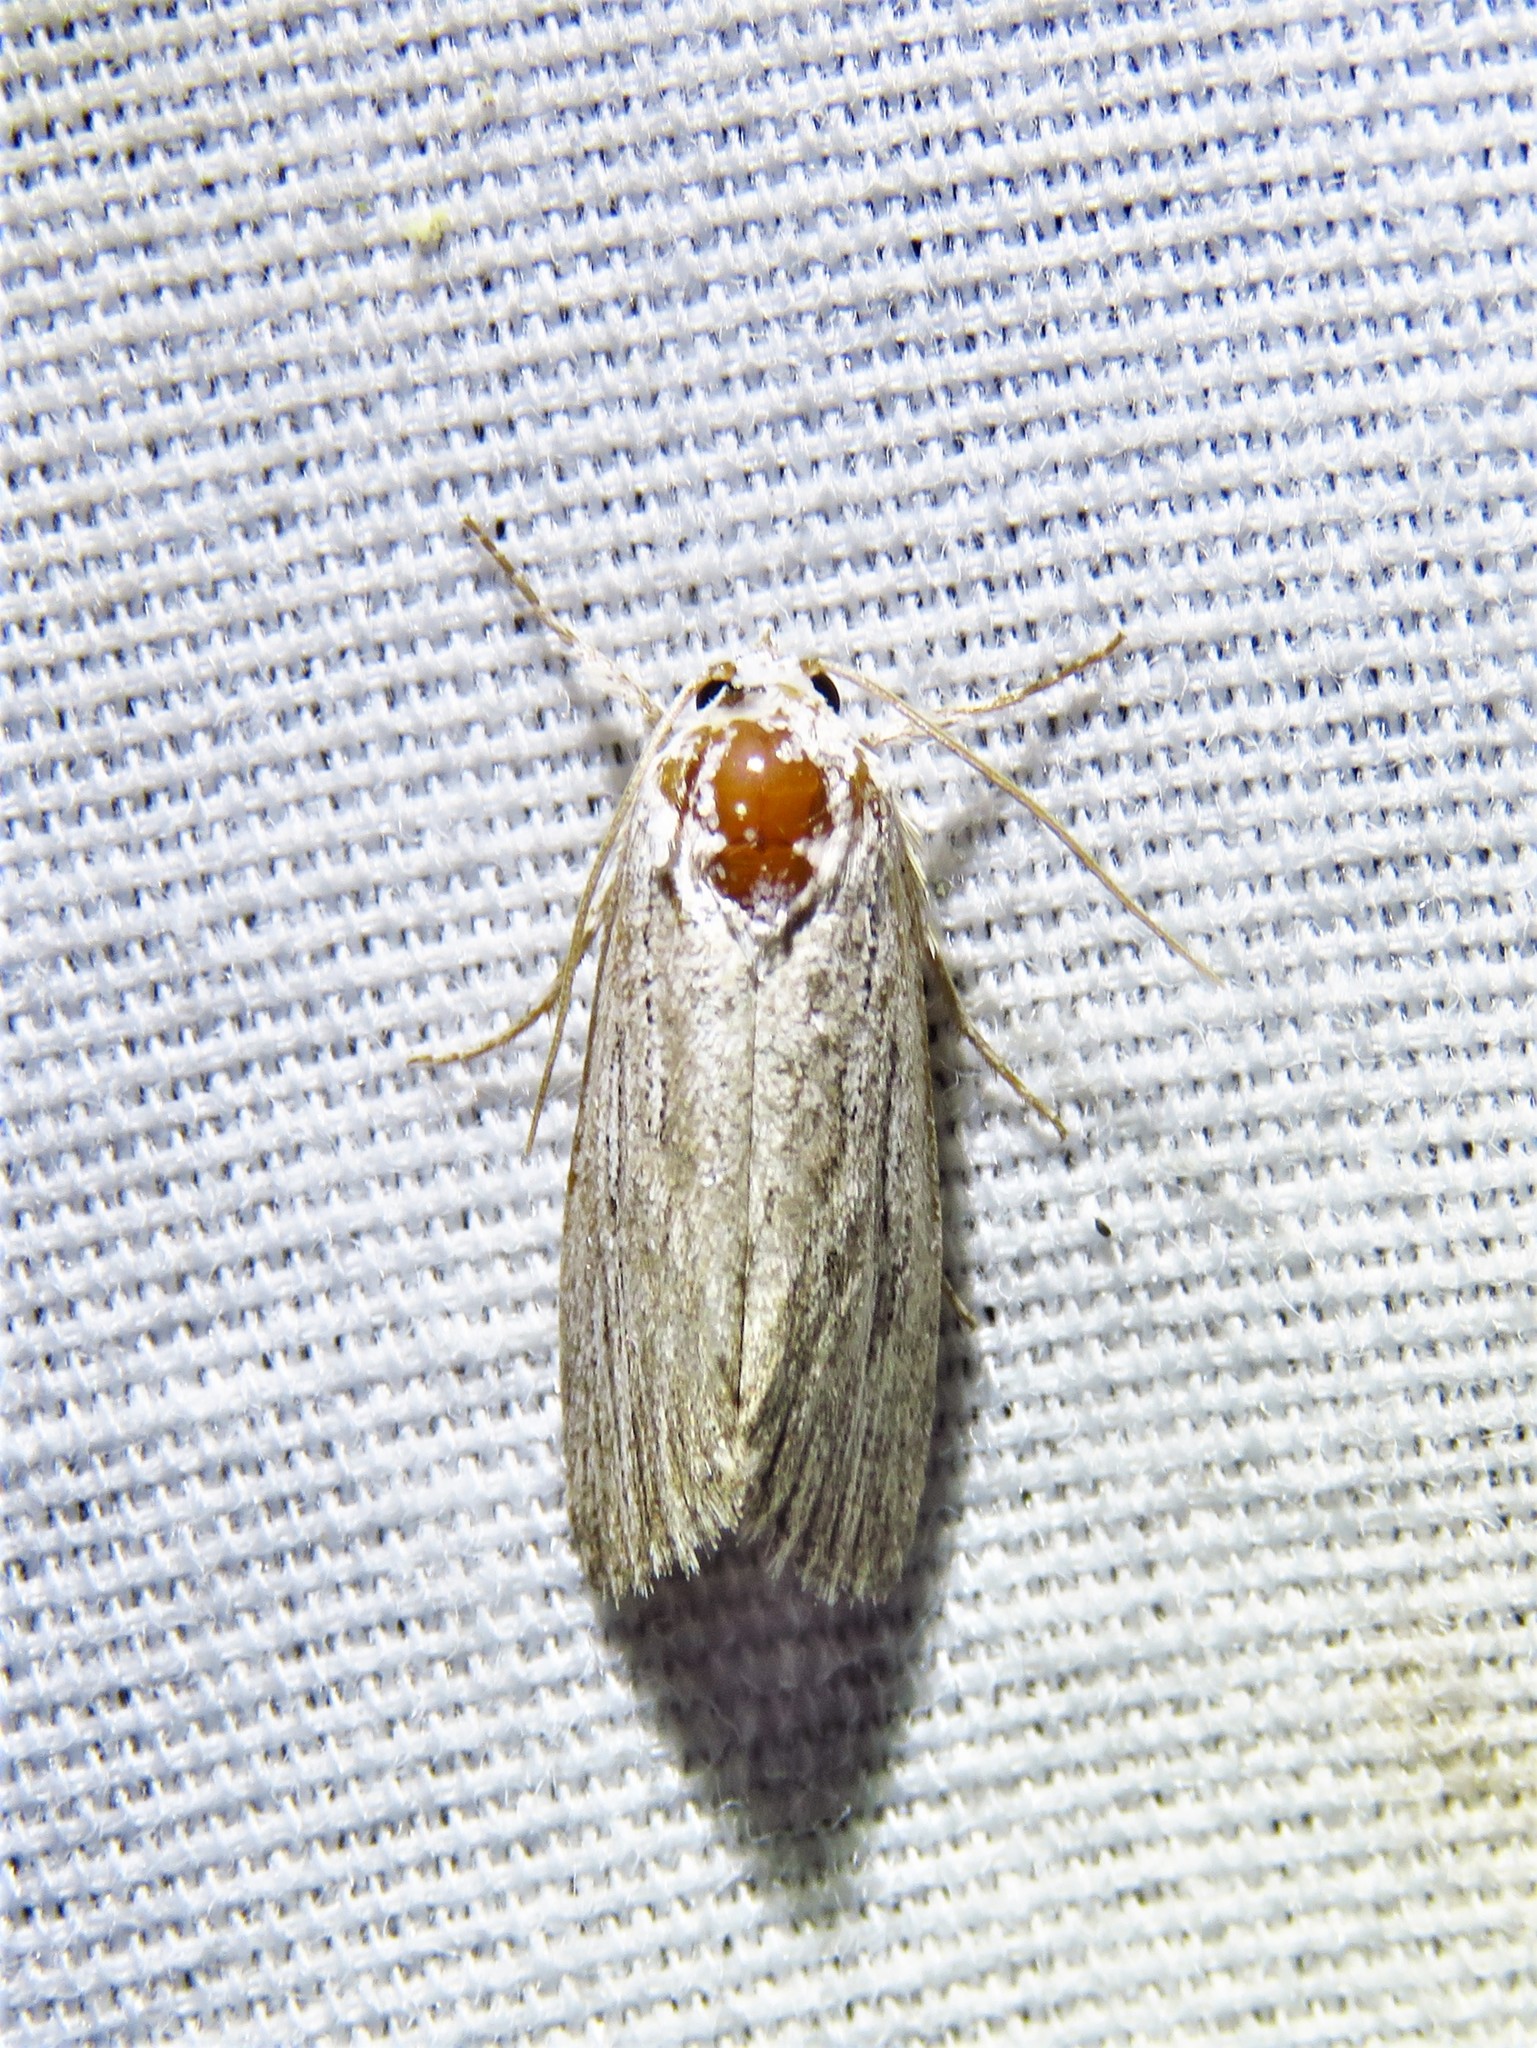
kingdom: Animalia
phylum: Arthropoda
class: Insecta
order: Lepidoptera
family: Noctuidae
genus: Catabena
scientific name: Catabena lineolata
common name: Fine-lined sallow
